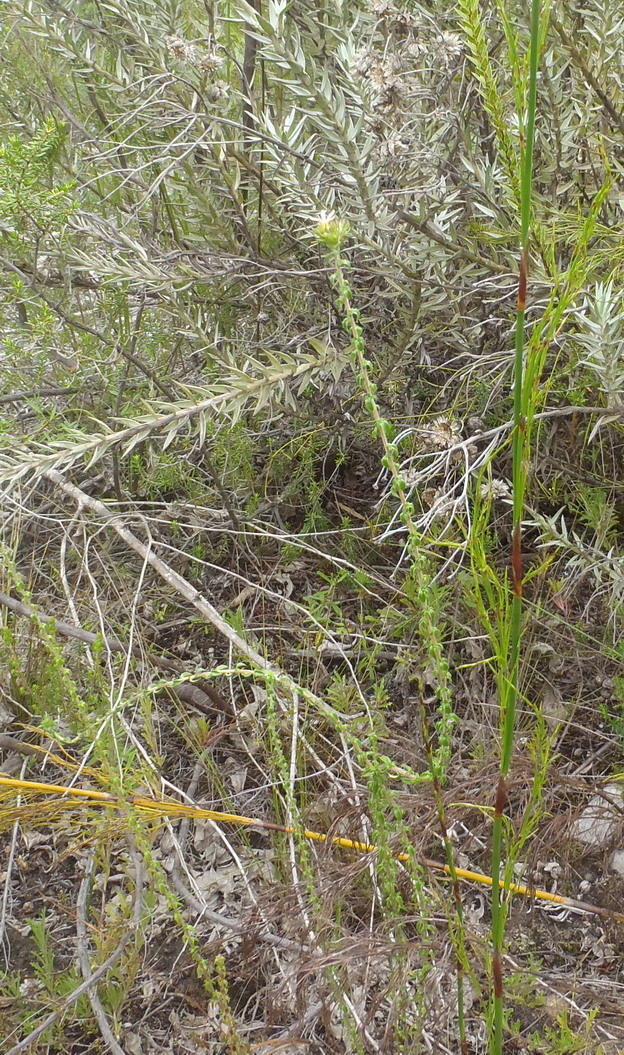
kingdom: Plantae
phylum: Tracheophyta
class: Magnoliopsida
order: Asterales
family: Campanulaceae
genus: Wahlenbergia
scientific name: Wahlenbergia desmantha
